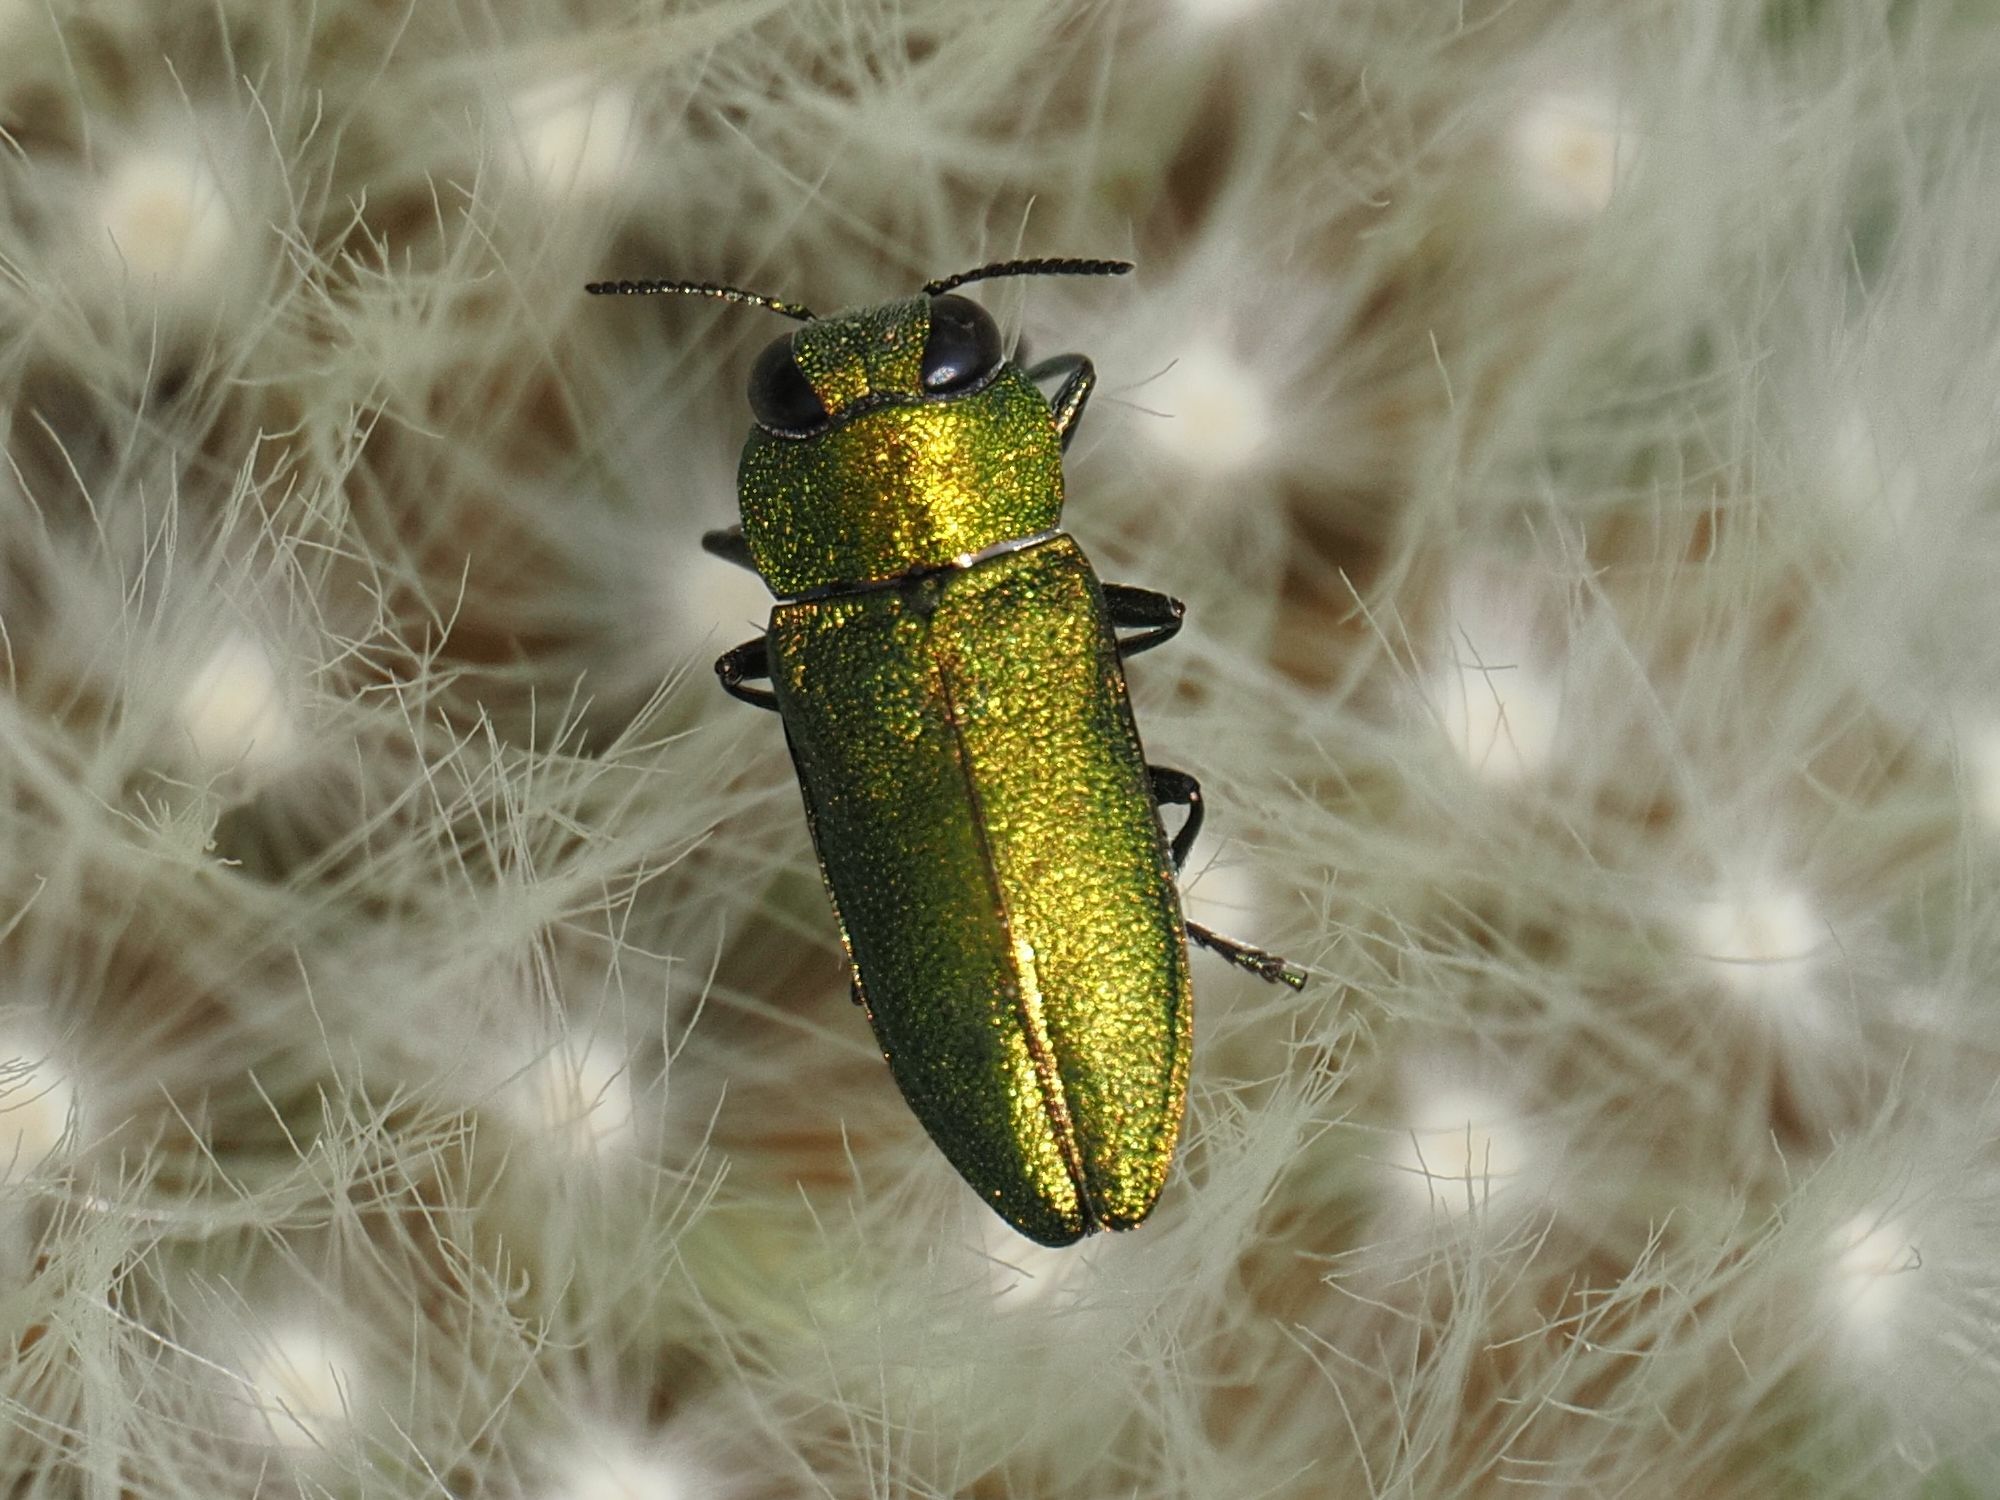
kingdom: Animalia
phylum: Arthropoda
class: Insecta
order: Coleoptera
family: Buprestidae
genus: Anthaxia
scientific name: Anthaxia nitidula
